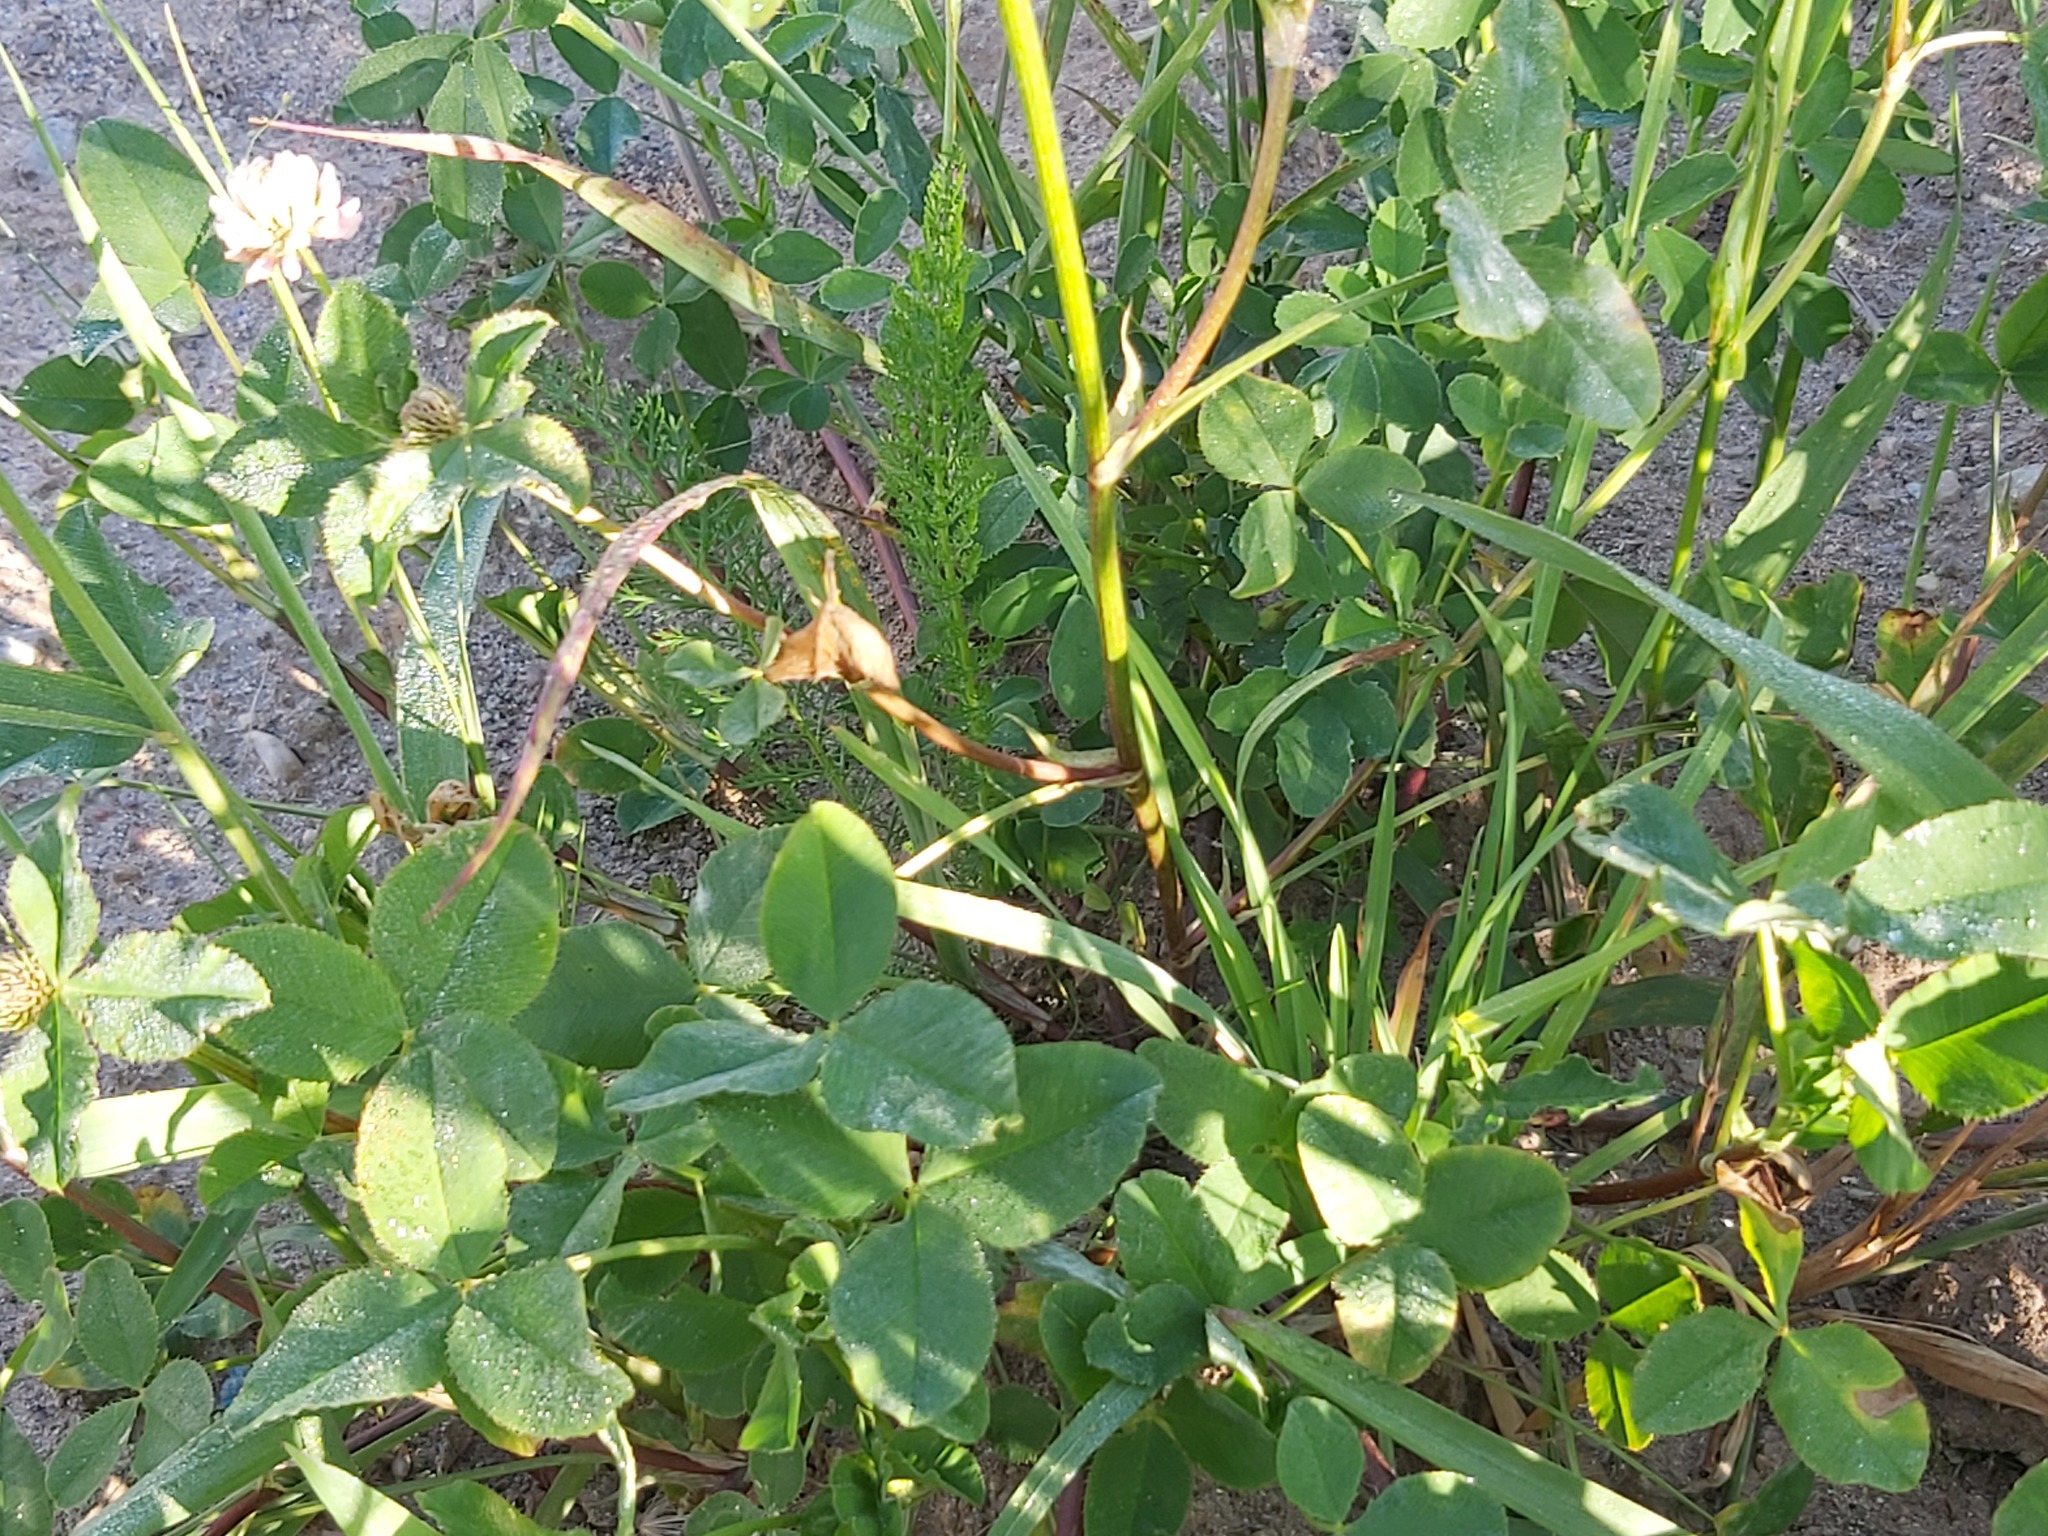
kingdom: Plantae
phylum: Tracheophyta
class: Magnoliopsida
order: Fabales
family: Fabaceae
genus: Trifolium
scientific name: Trifolium hybridum
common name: Alsike clover
